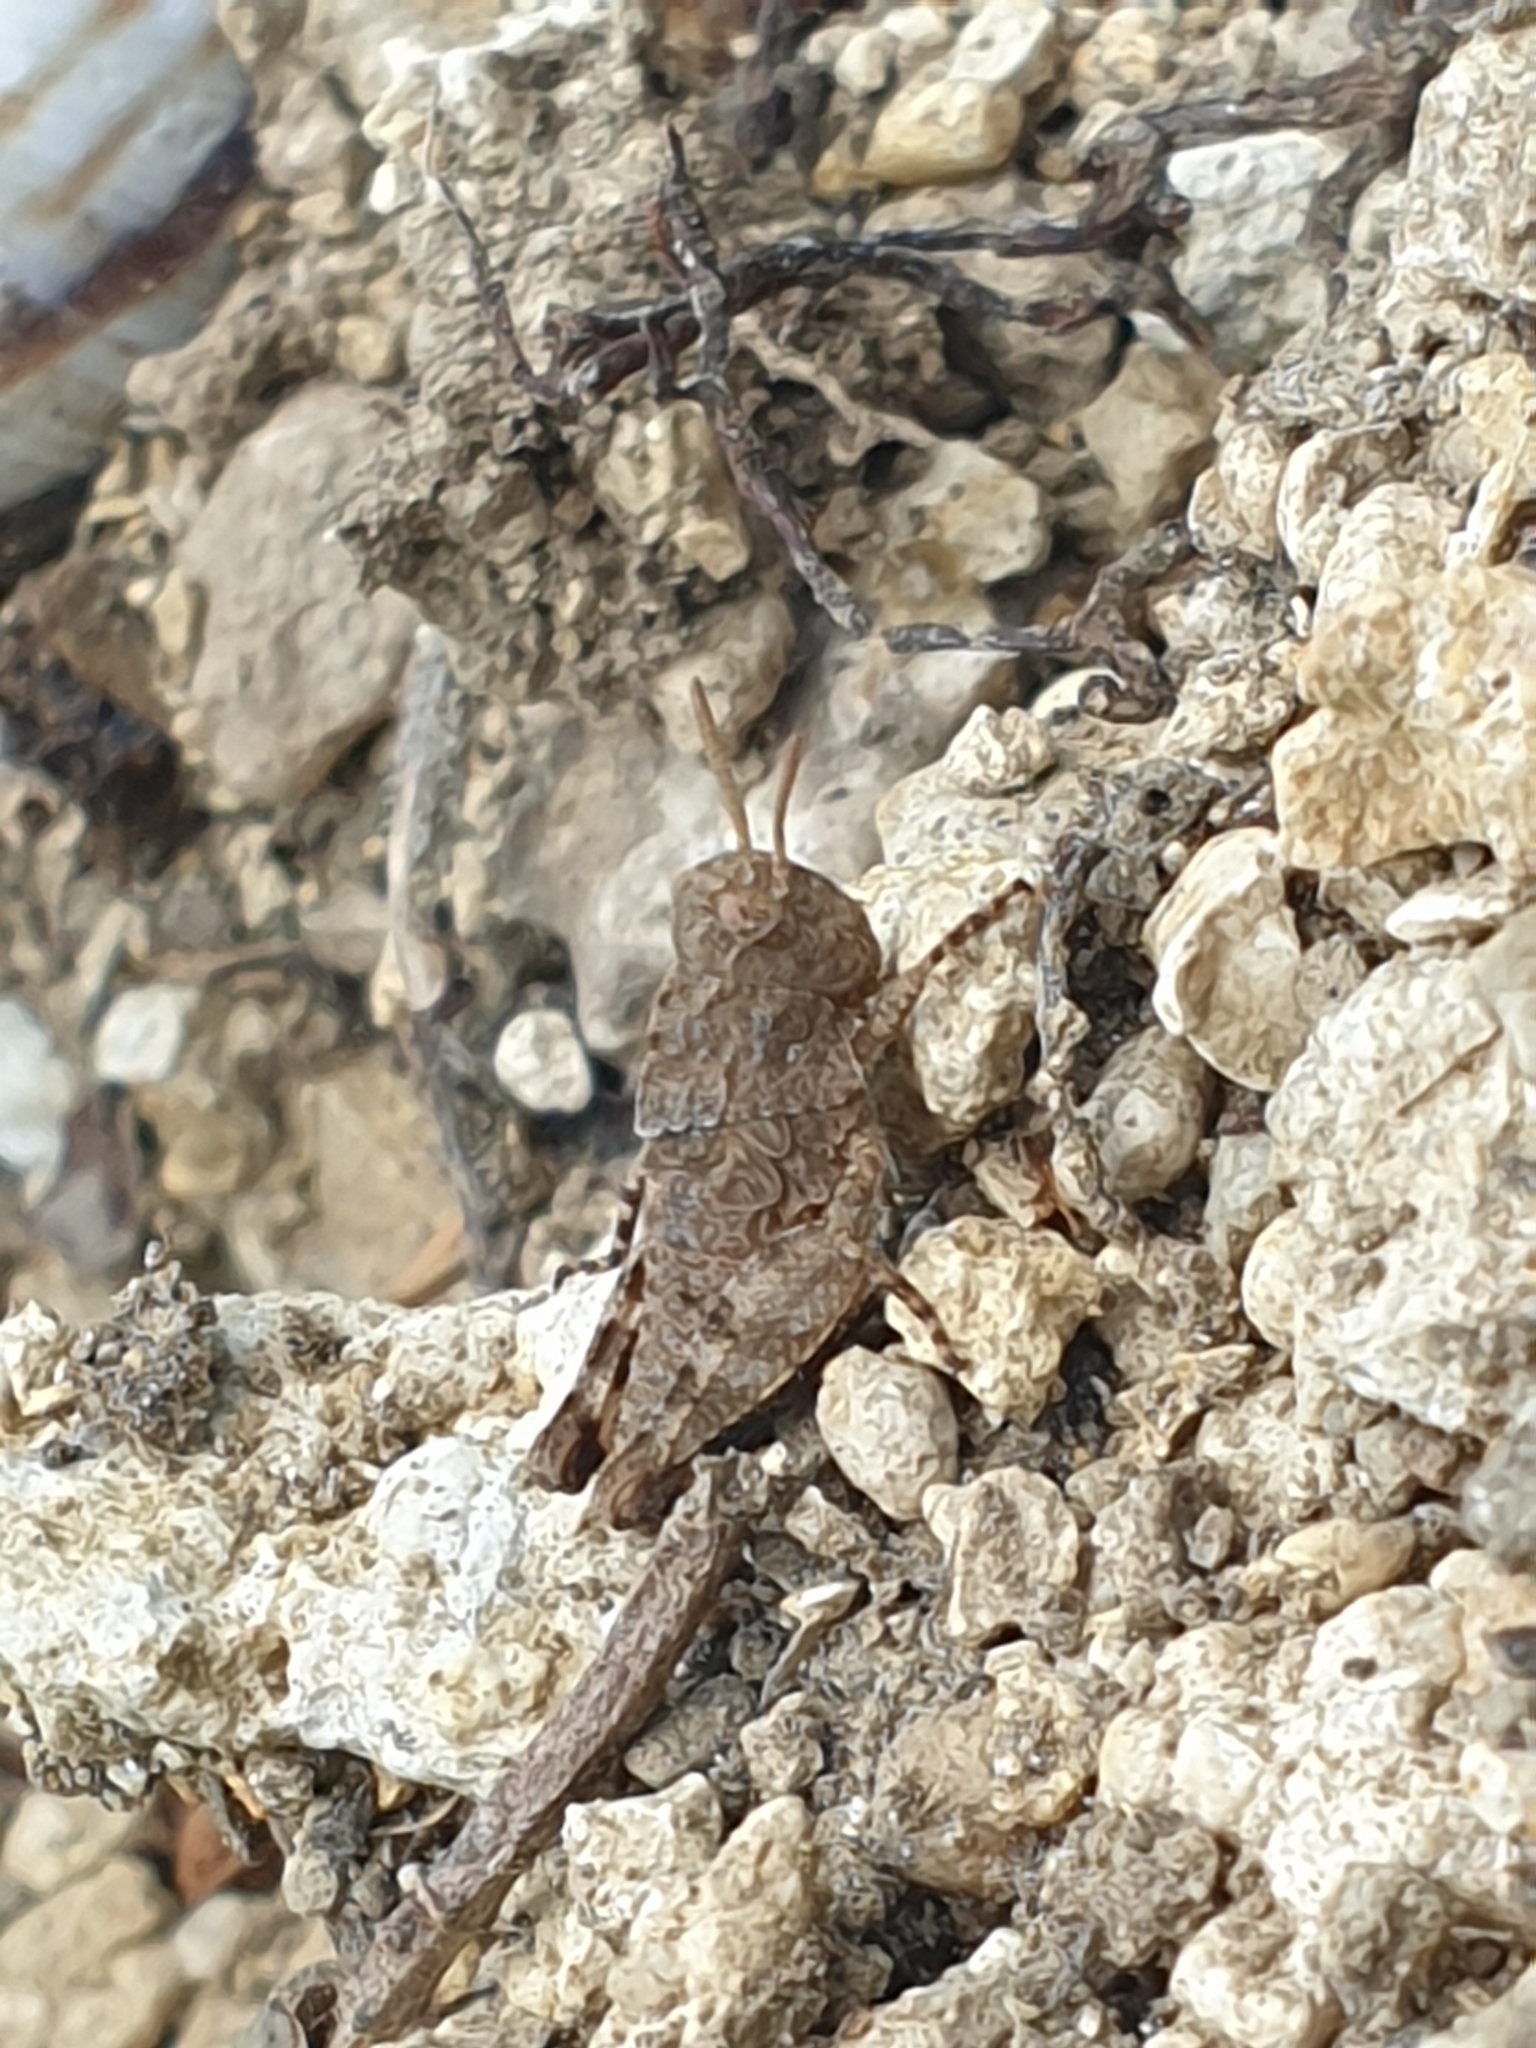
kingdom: Animalia
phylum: Arthropoda
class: Insecta
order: Orthoptera
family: Acrididae
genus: Oedipoda
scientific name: Oedipoda caerulescens
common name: Blue-winged grasshopper
